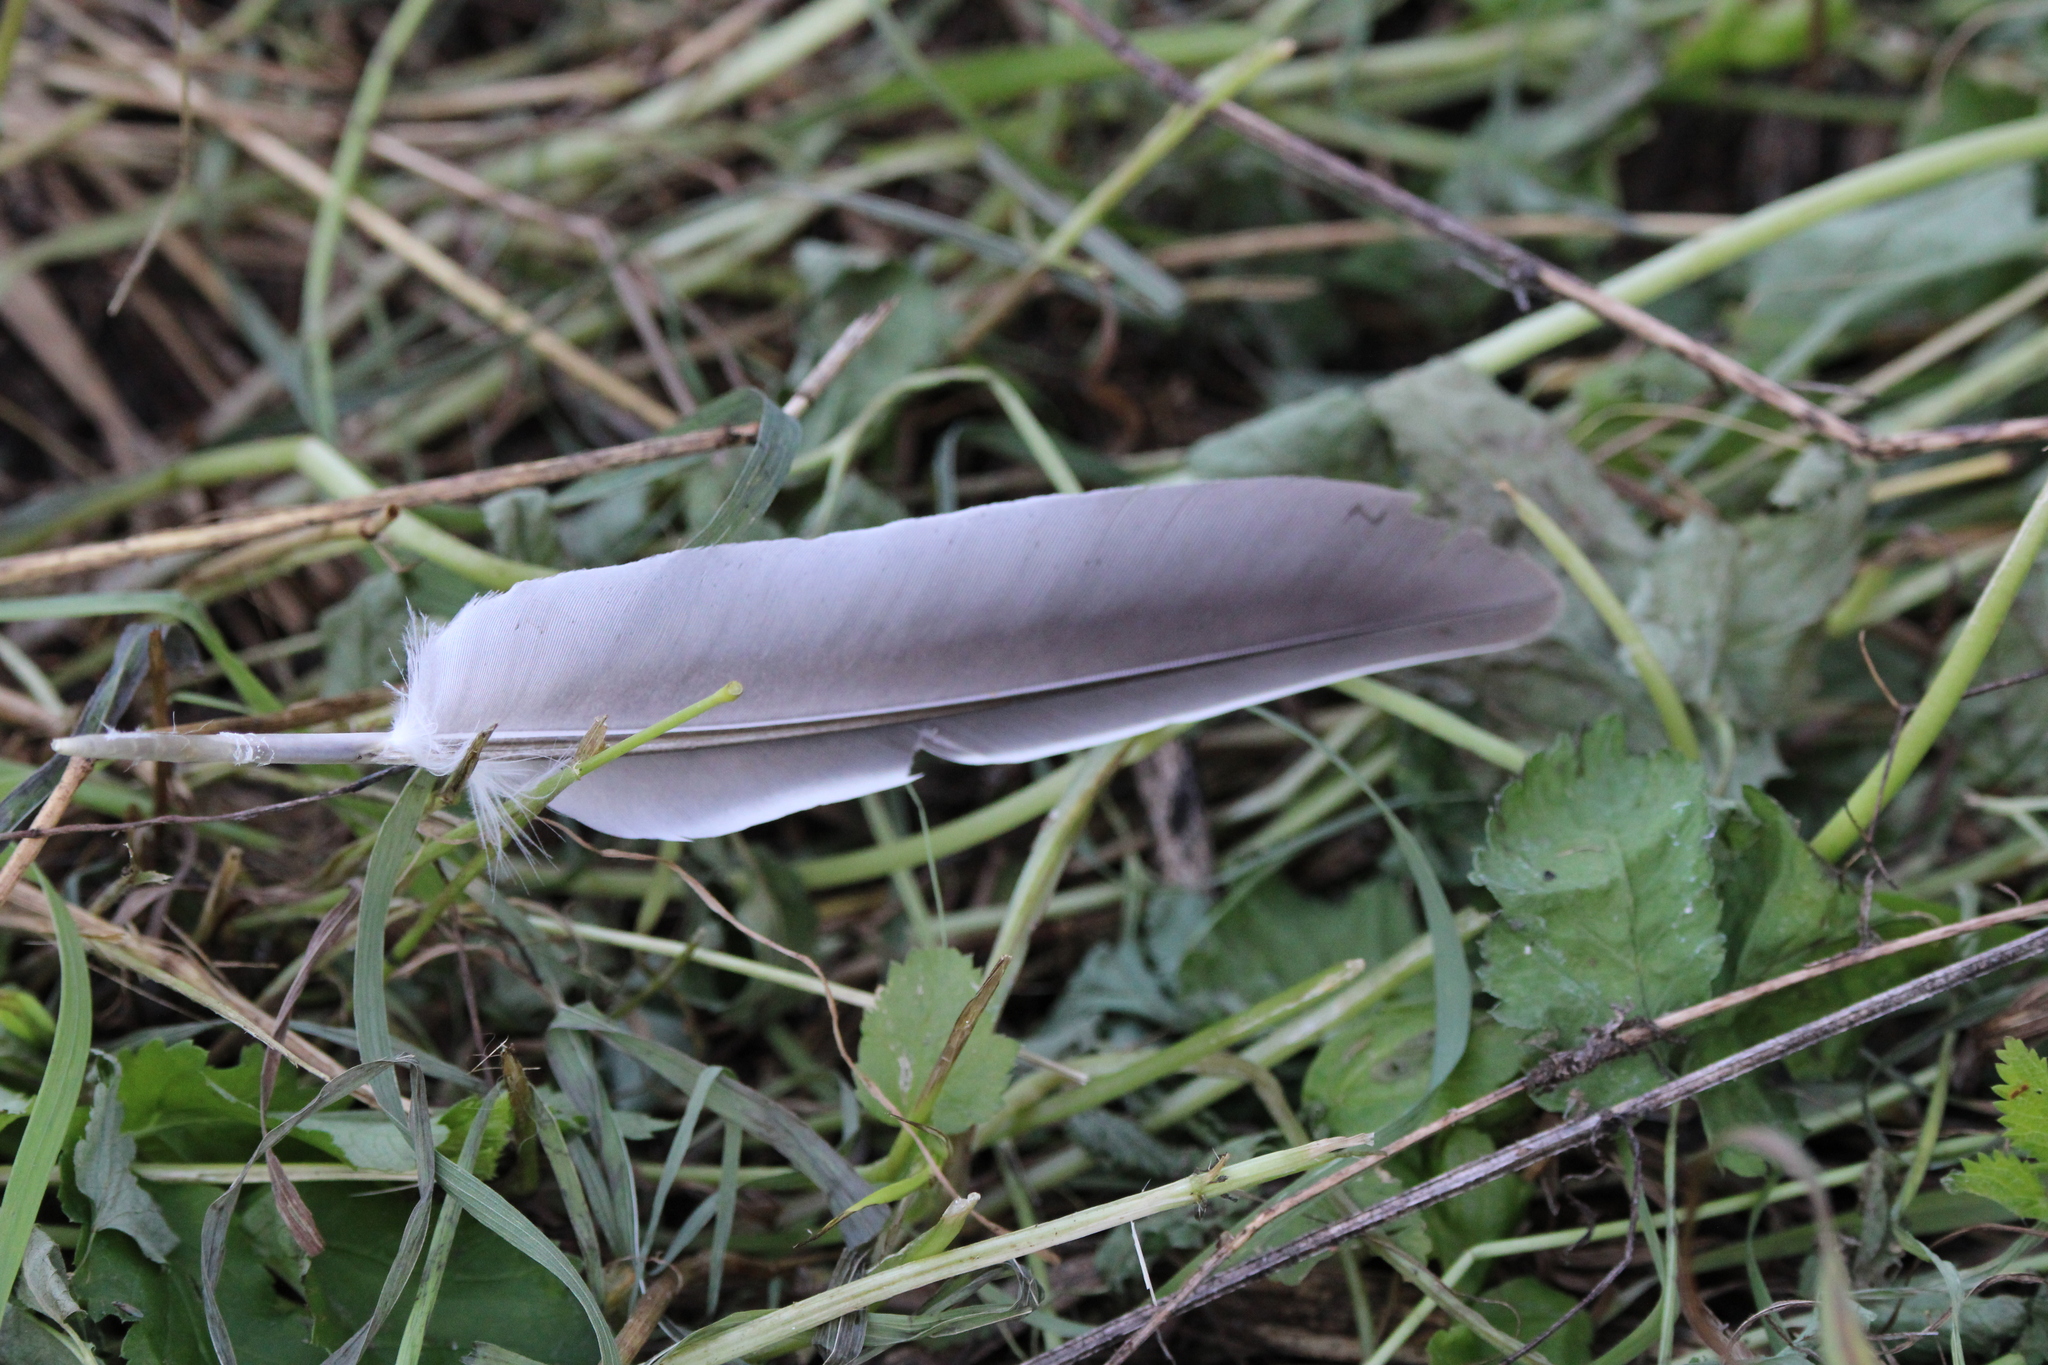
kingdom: Animalia
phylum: Chordata
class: Aves
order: Columbiformes
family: Columbidae
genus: Columba
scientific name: Columba palumbus
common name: Common wood pigeon
